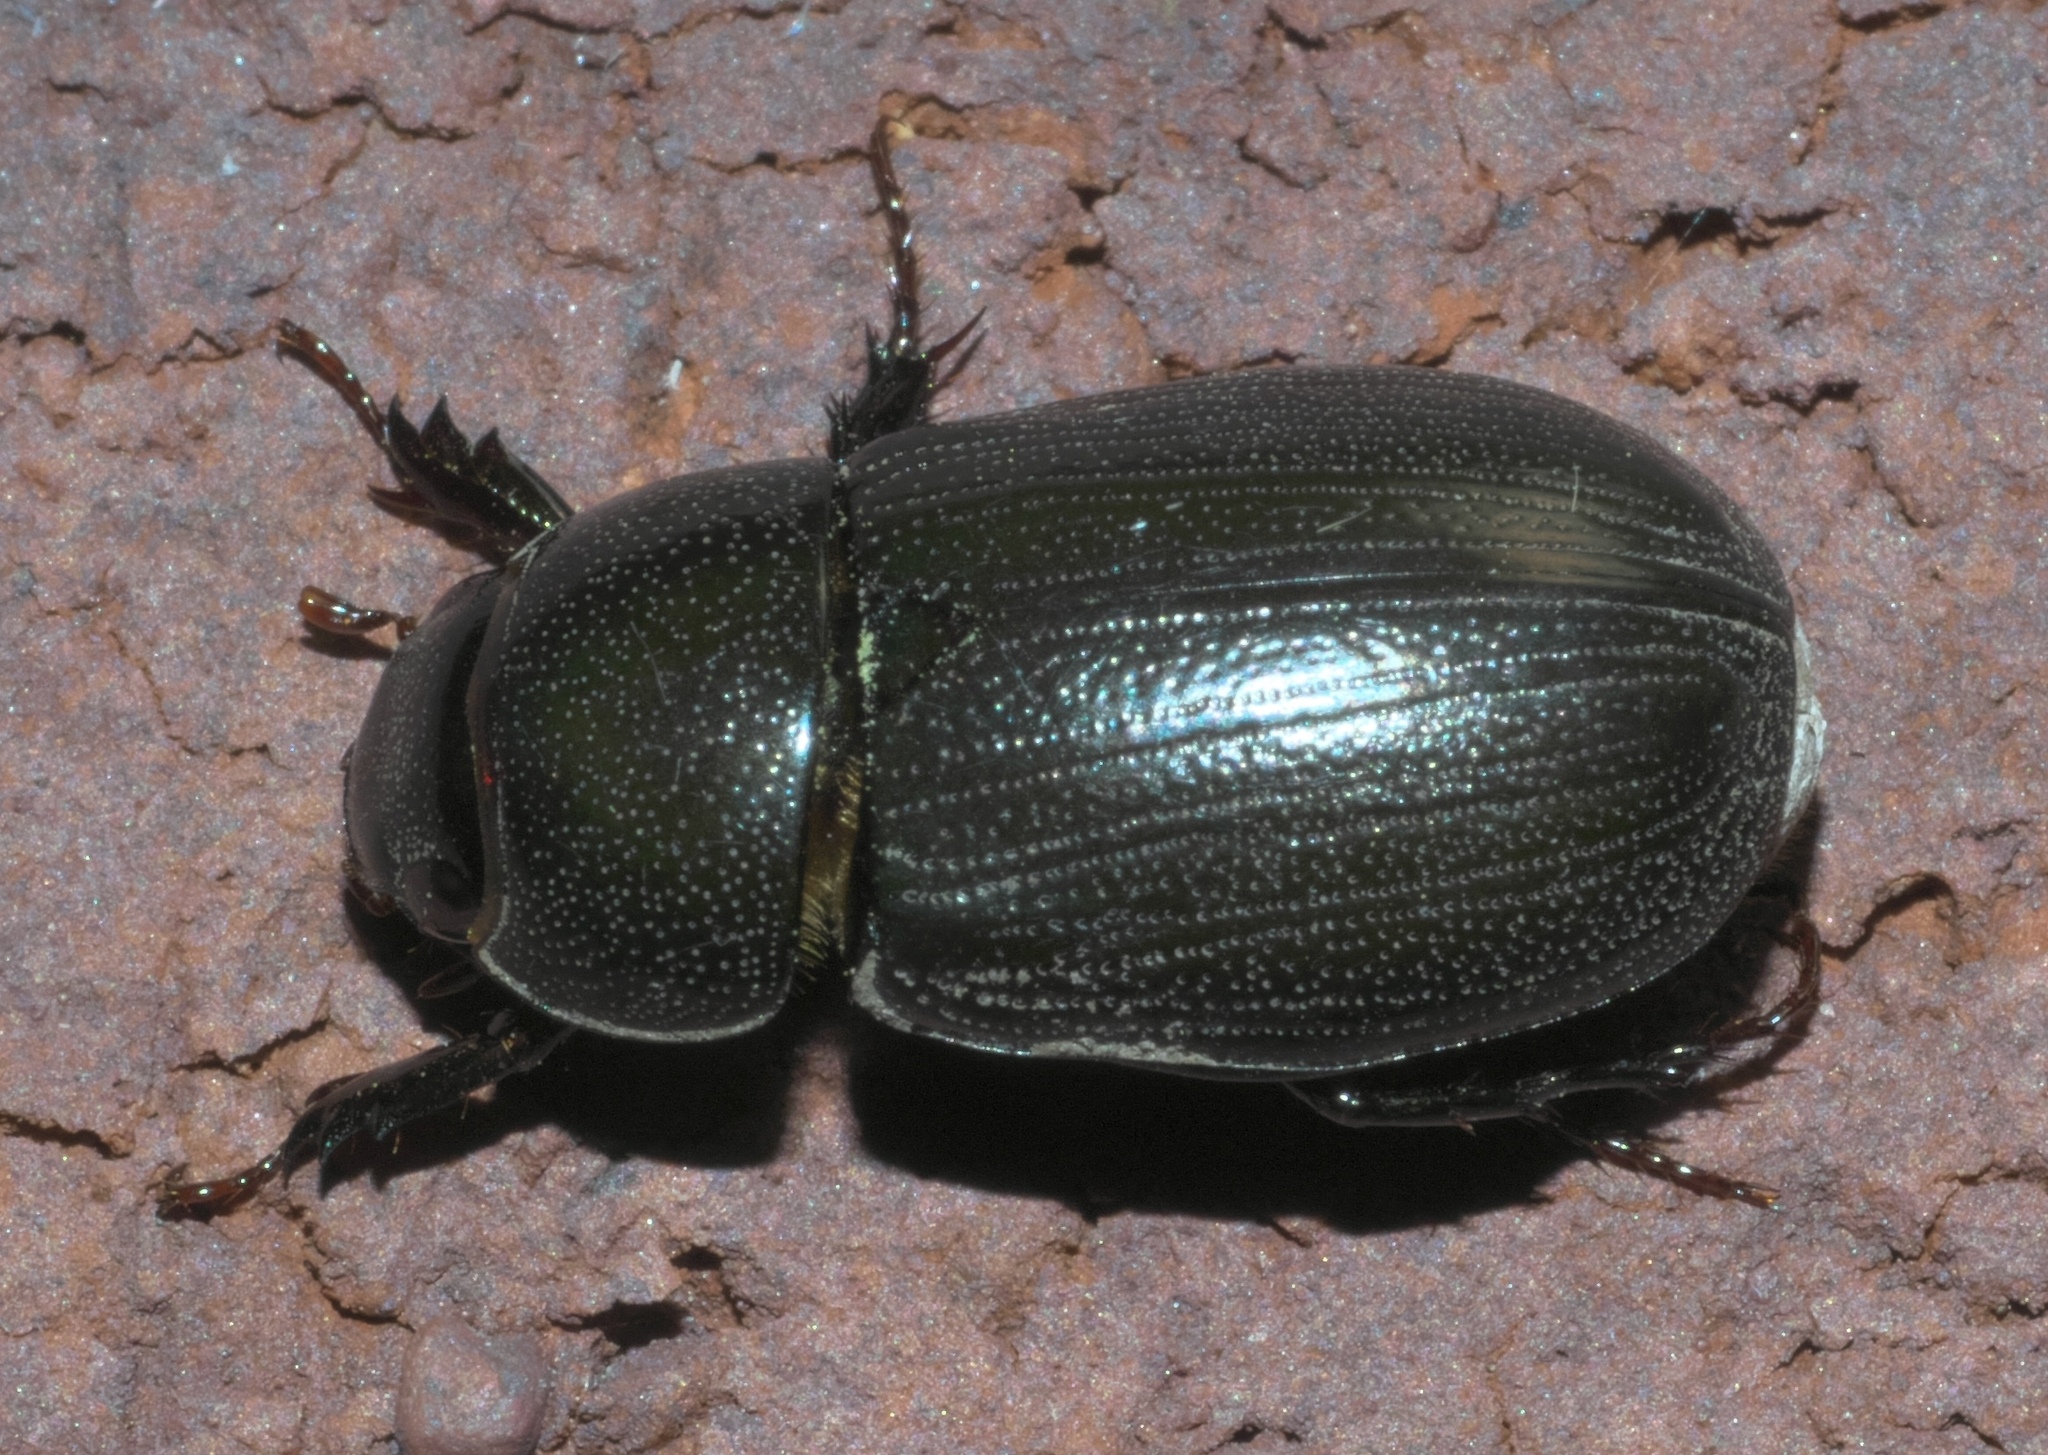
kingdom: Animalia
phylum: Arthropoda
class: Insecta
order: Coleoptera
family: Scarabaeidae
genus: Dyscinetus
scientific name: Dyscinetus morator
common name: Rice beetle
